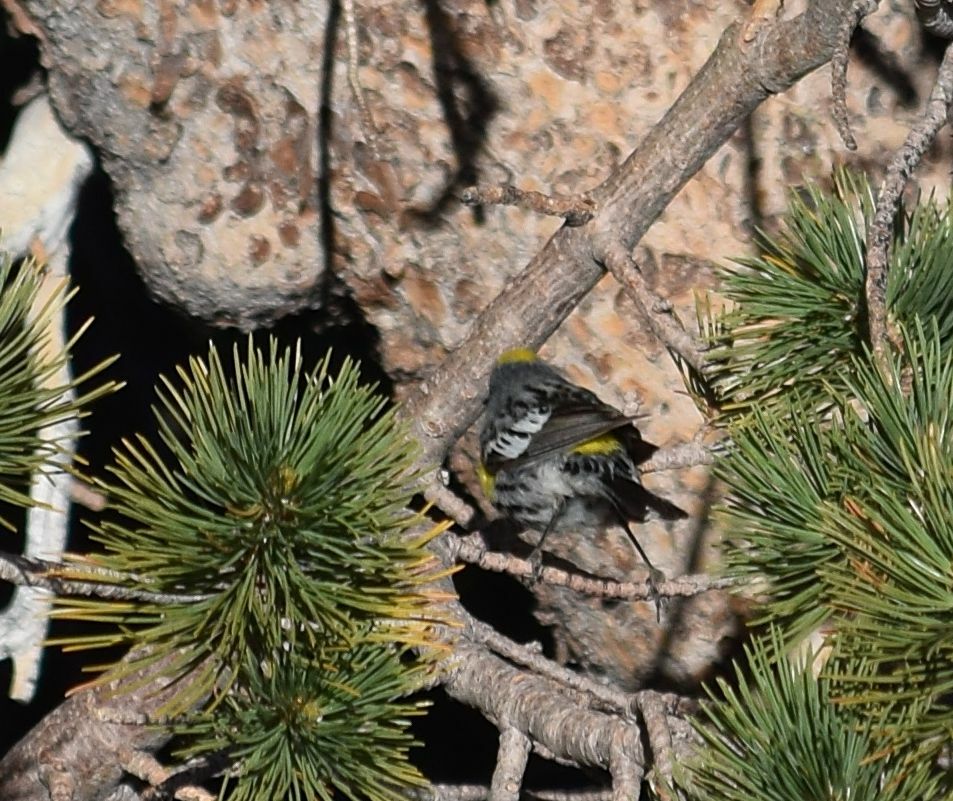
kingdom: Animalia
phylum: Chordata
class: Aves
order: Passeriformes
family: Parulidae
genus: Setophaga
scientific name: Setophaga coronata
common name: Myrtle warbler
